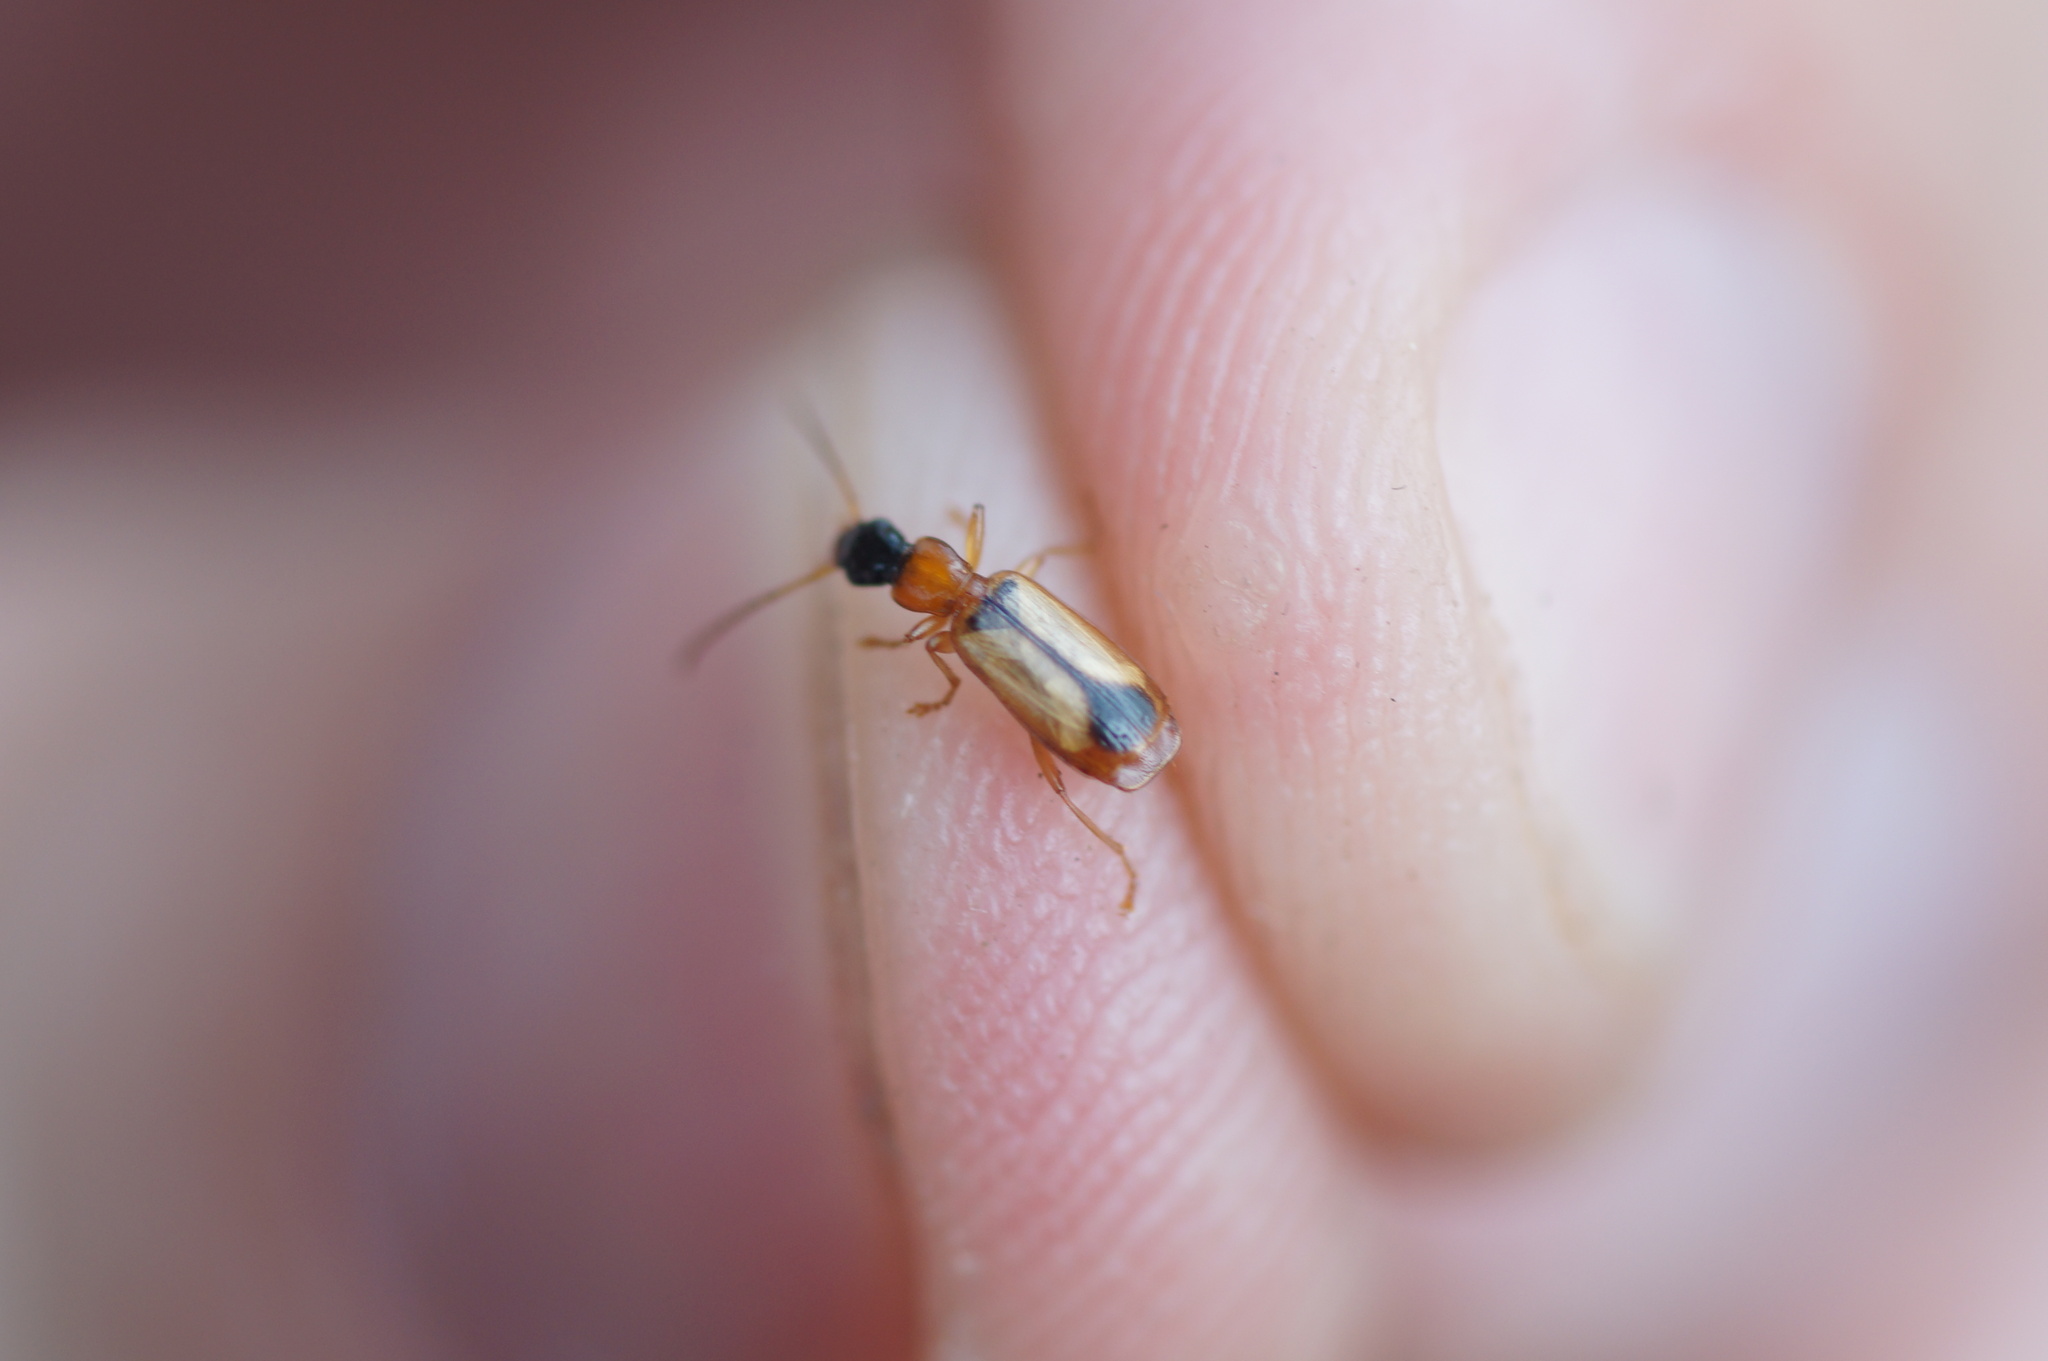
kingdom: Animalia
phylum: Arthropoda
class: Insecta
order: Coleoptera
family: Carabidae
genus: Demetrias
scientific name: Demetrias monostigma
